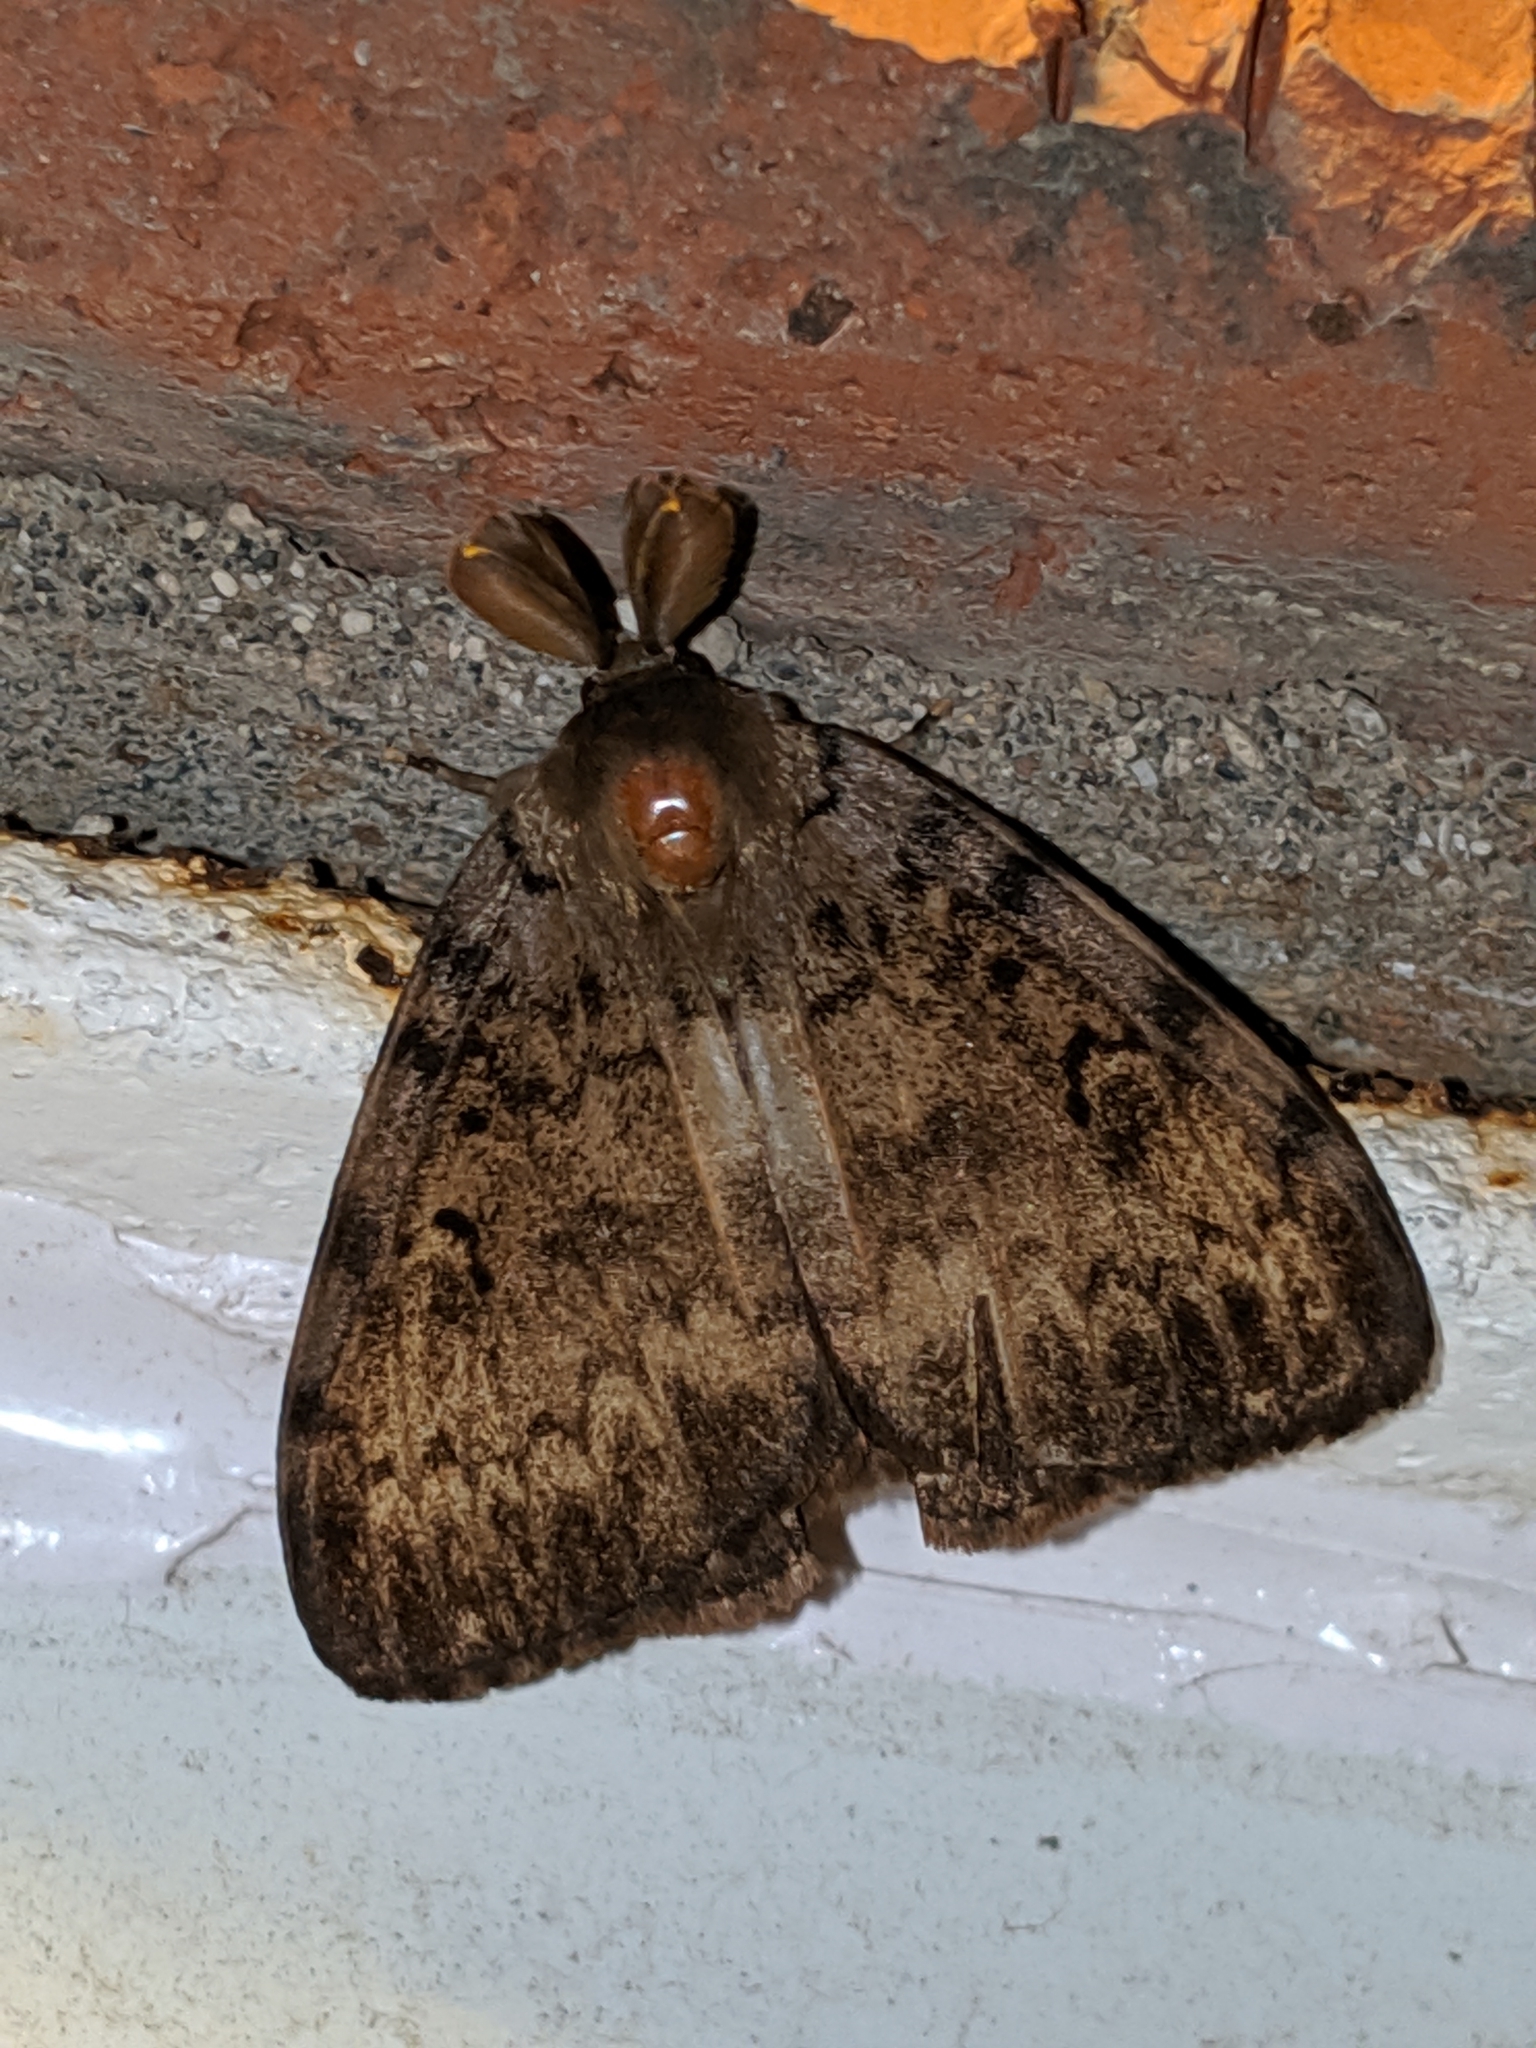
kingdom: Animalia
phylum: Arthropoda
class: Insecta
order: Lepidoptera
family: Erebidae
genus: Lymantria
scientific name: Lymantria dispar
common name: Gypsy moth
